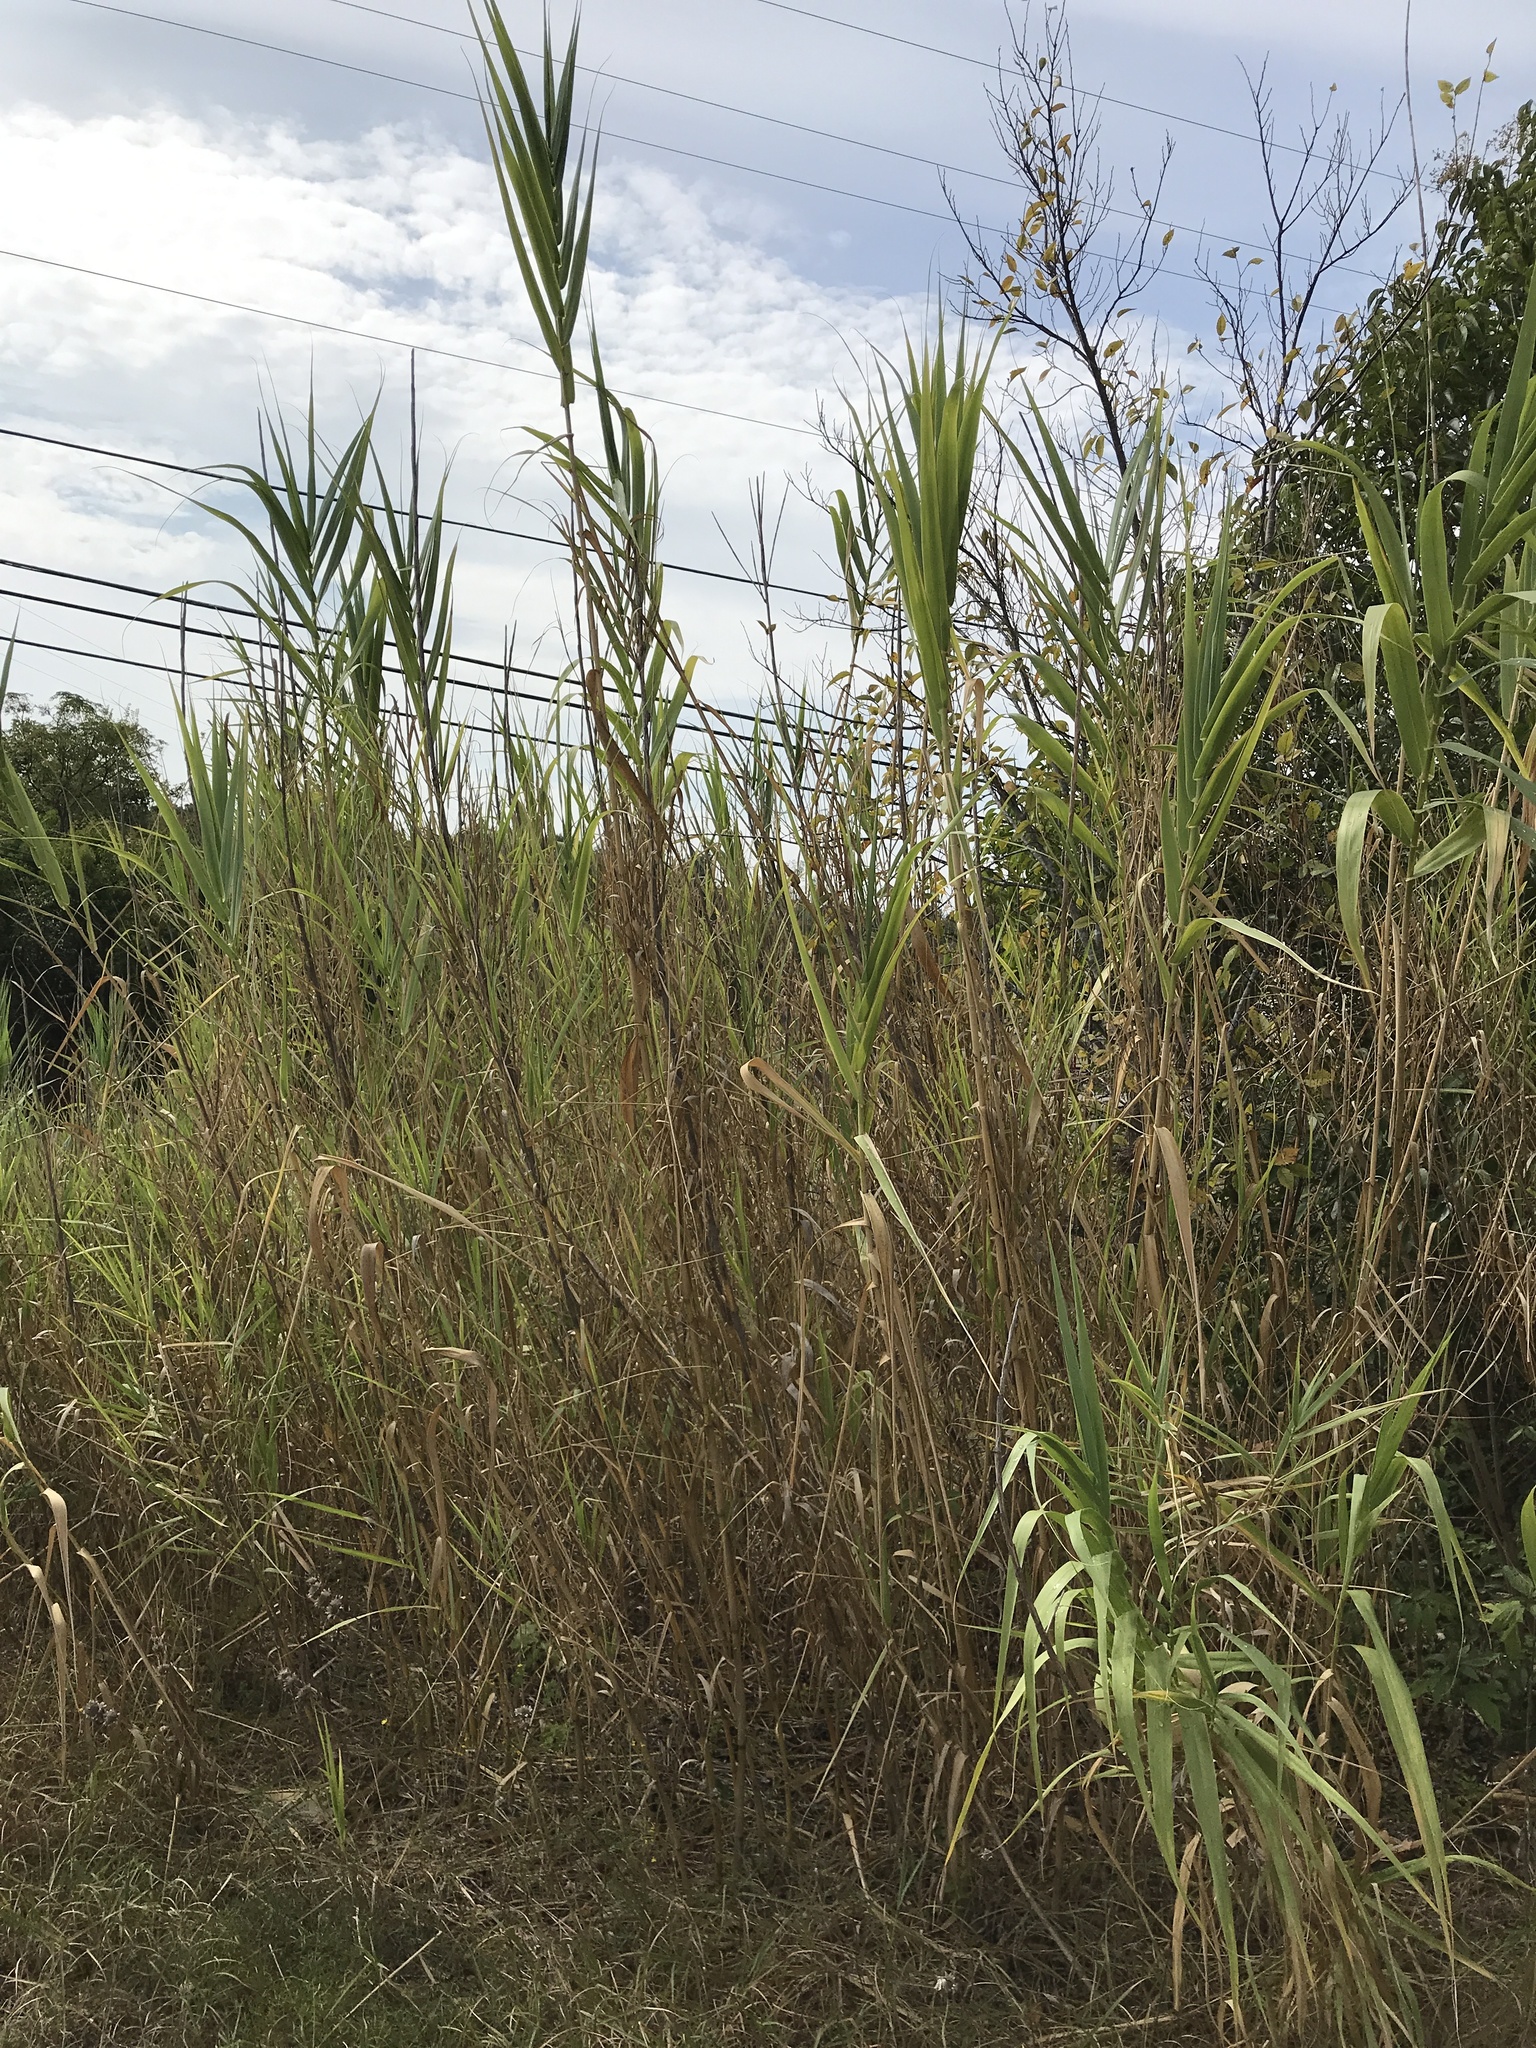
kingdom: Plantae
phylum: Tracheophyta
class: Liliopsida
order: Poales
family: Poaceae
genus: Arundo
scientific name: Arundo donax
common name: Giant reed
